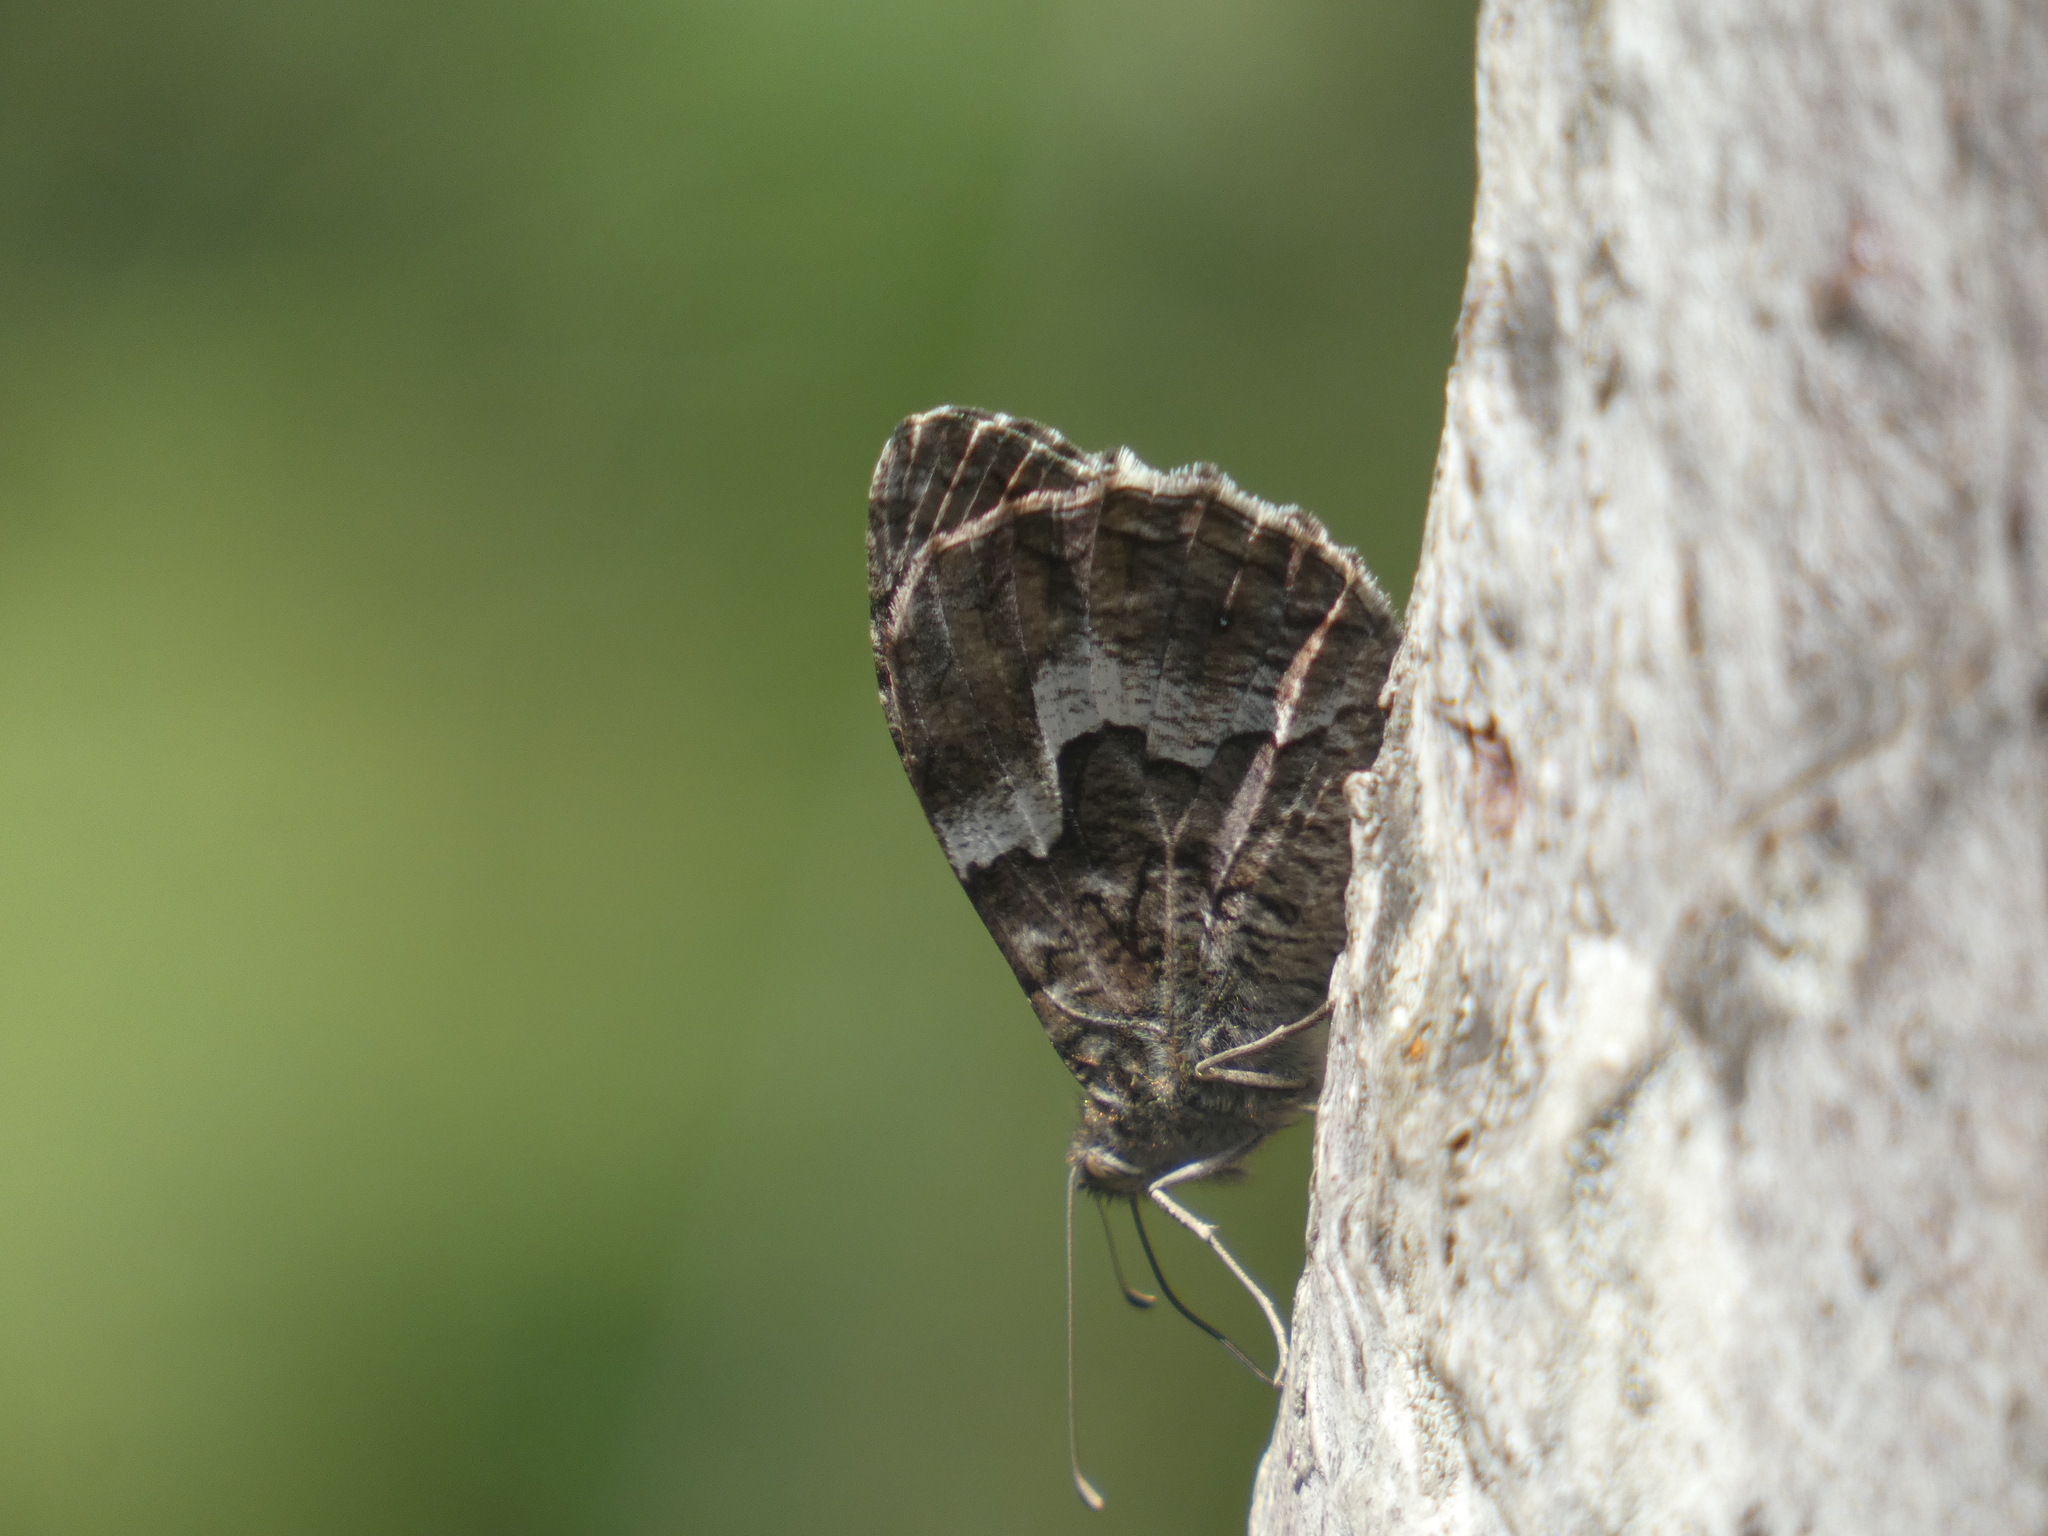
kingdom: Animalia
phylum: Arthropoda
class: Insecta
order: Lepidoptera
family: Nymphalidae
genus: Hipparchia
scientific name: Hipparchia semele
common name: Grayling
